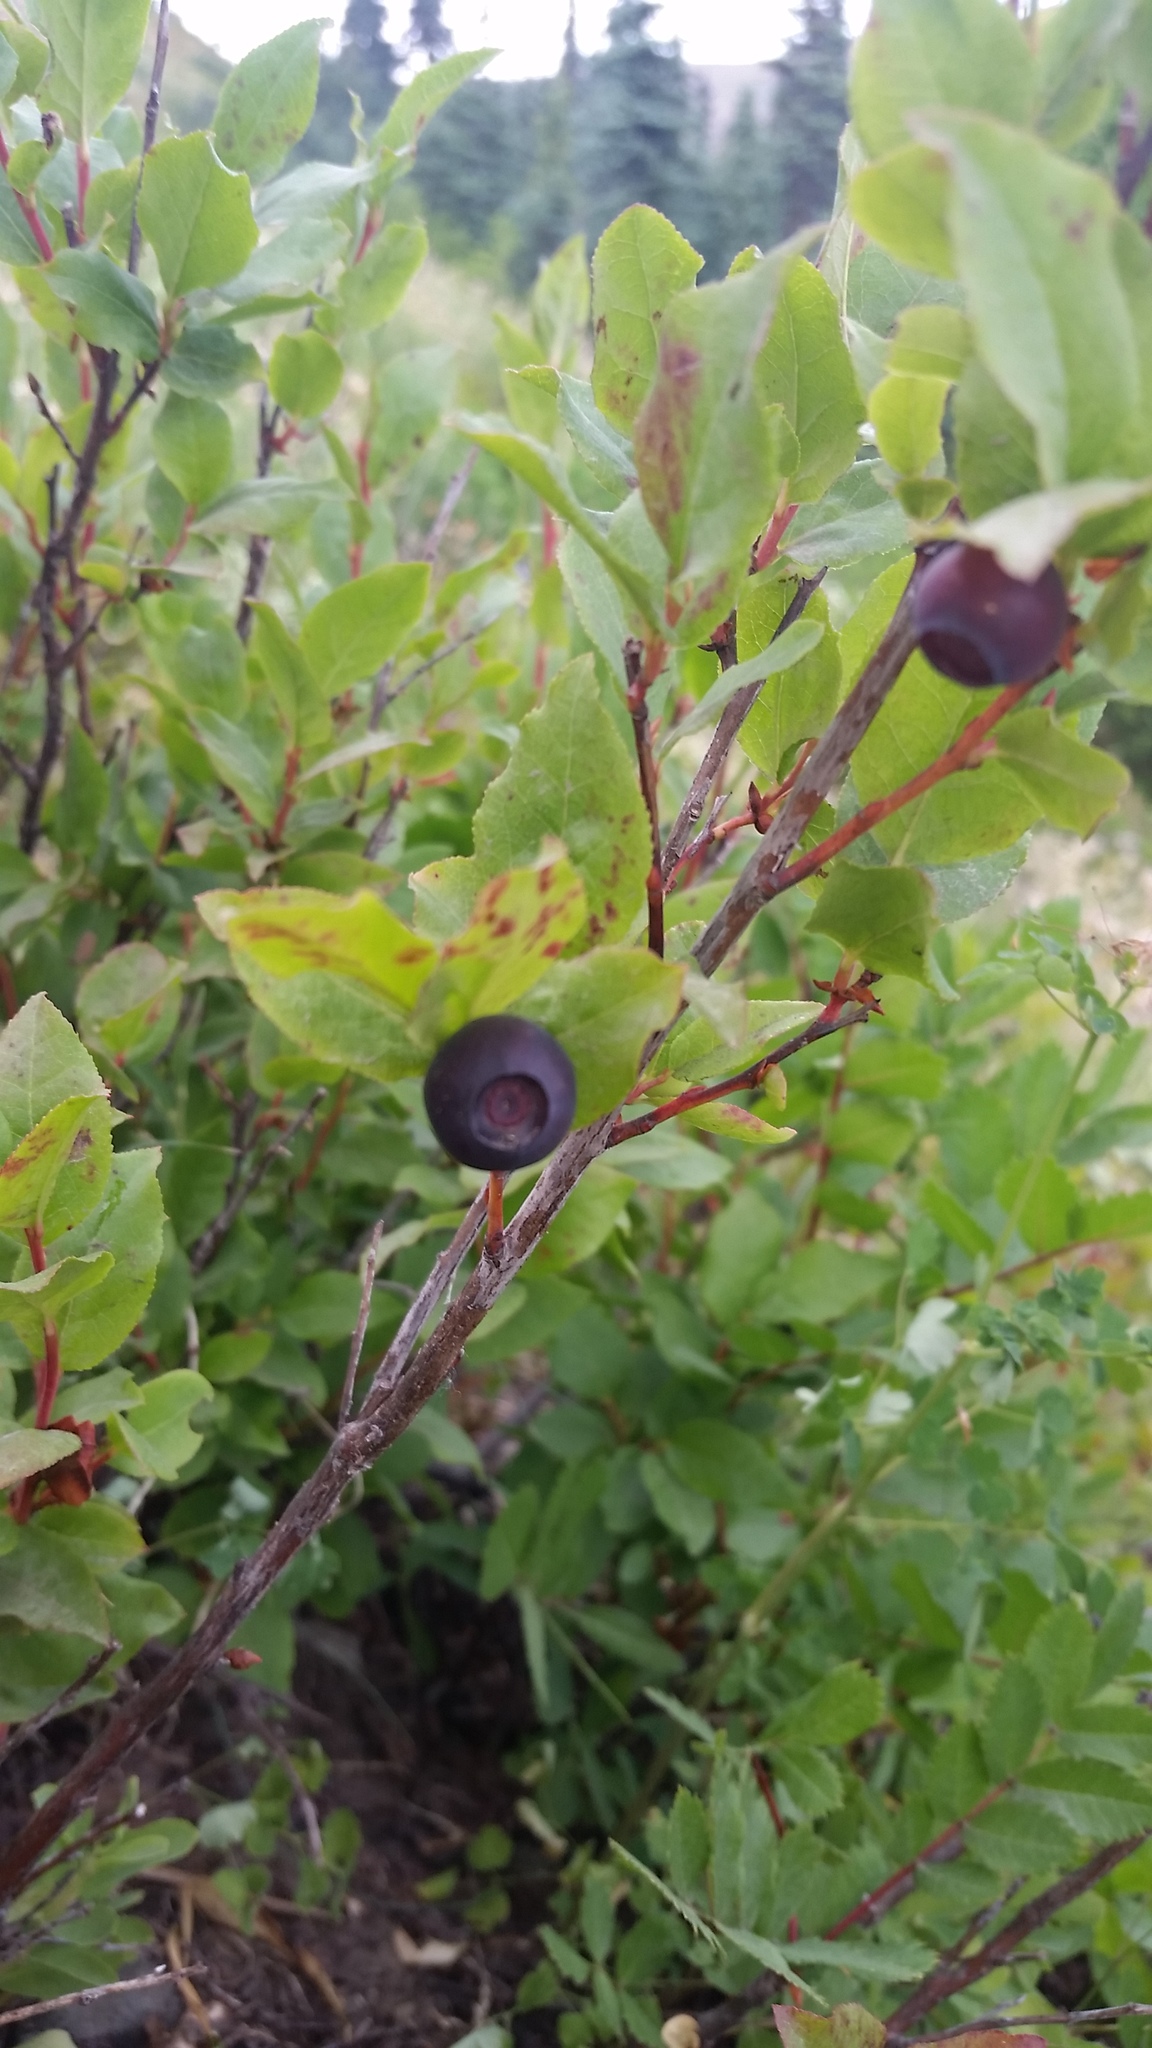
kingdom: Plantae
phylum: Tracheophyta
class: Magnoliopsida
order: Ericales
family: Ericaceae
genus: Vaccinium
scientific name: Vaccinium membranaceum
